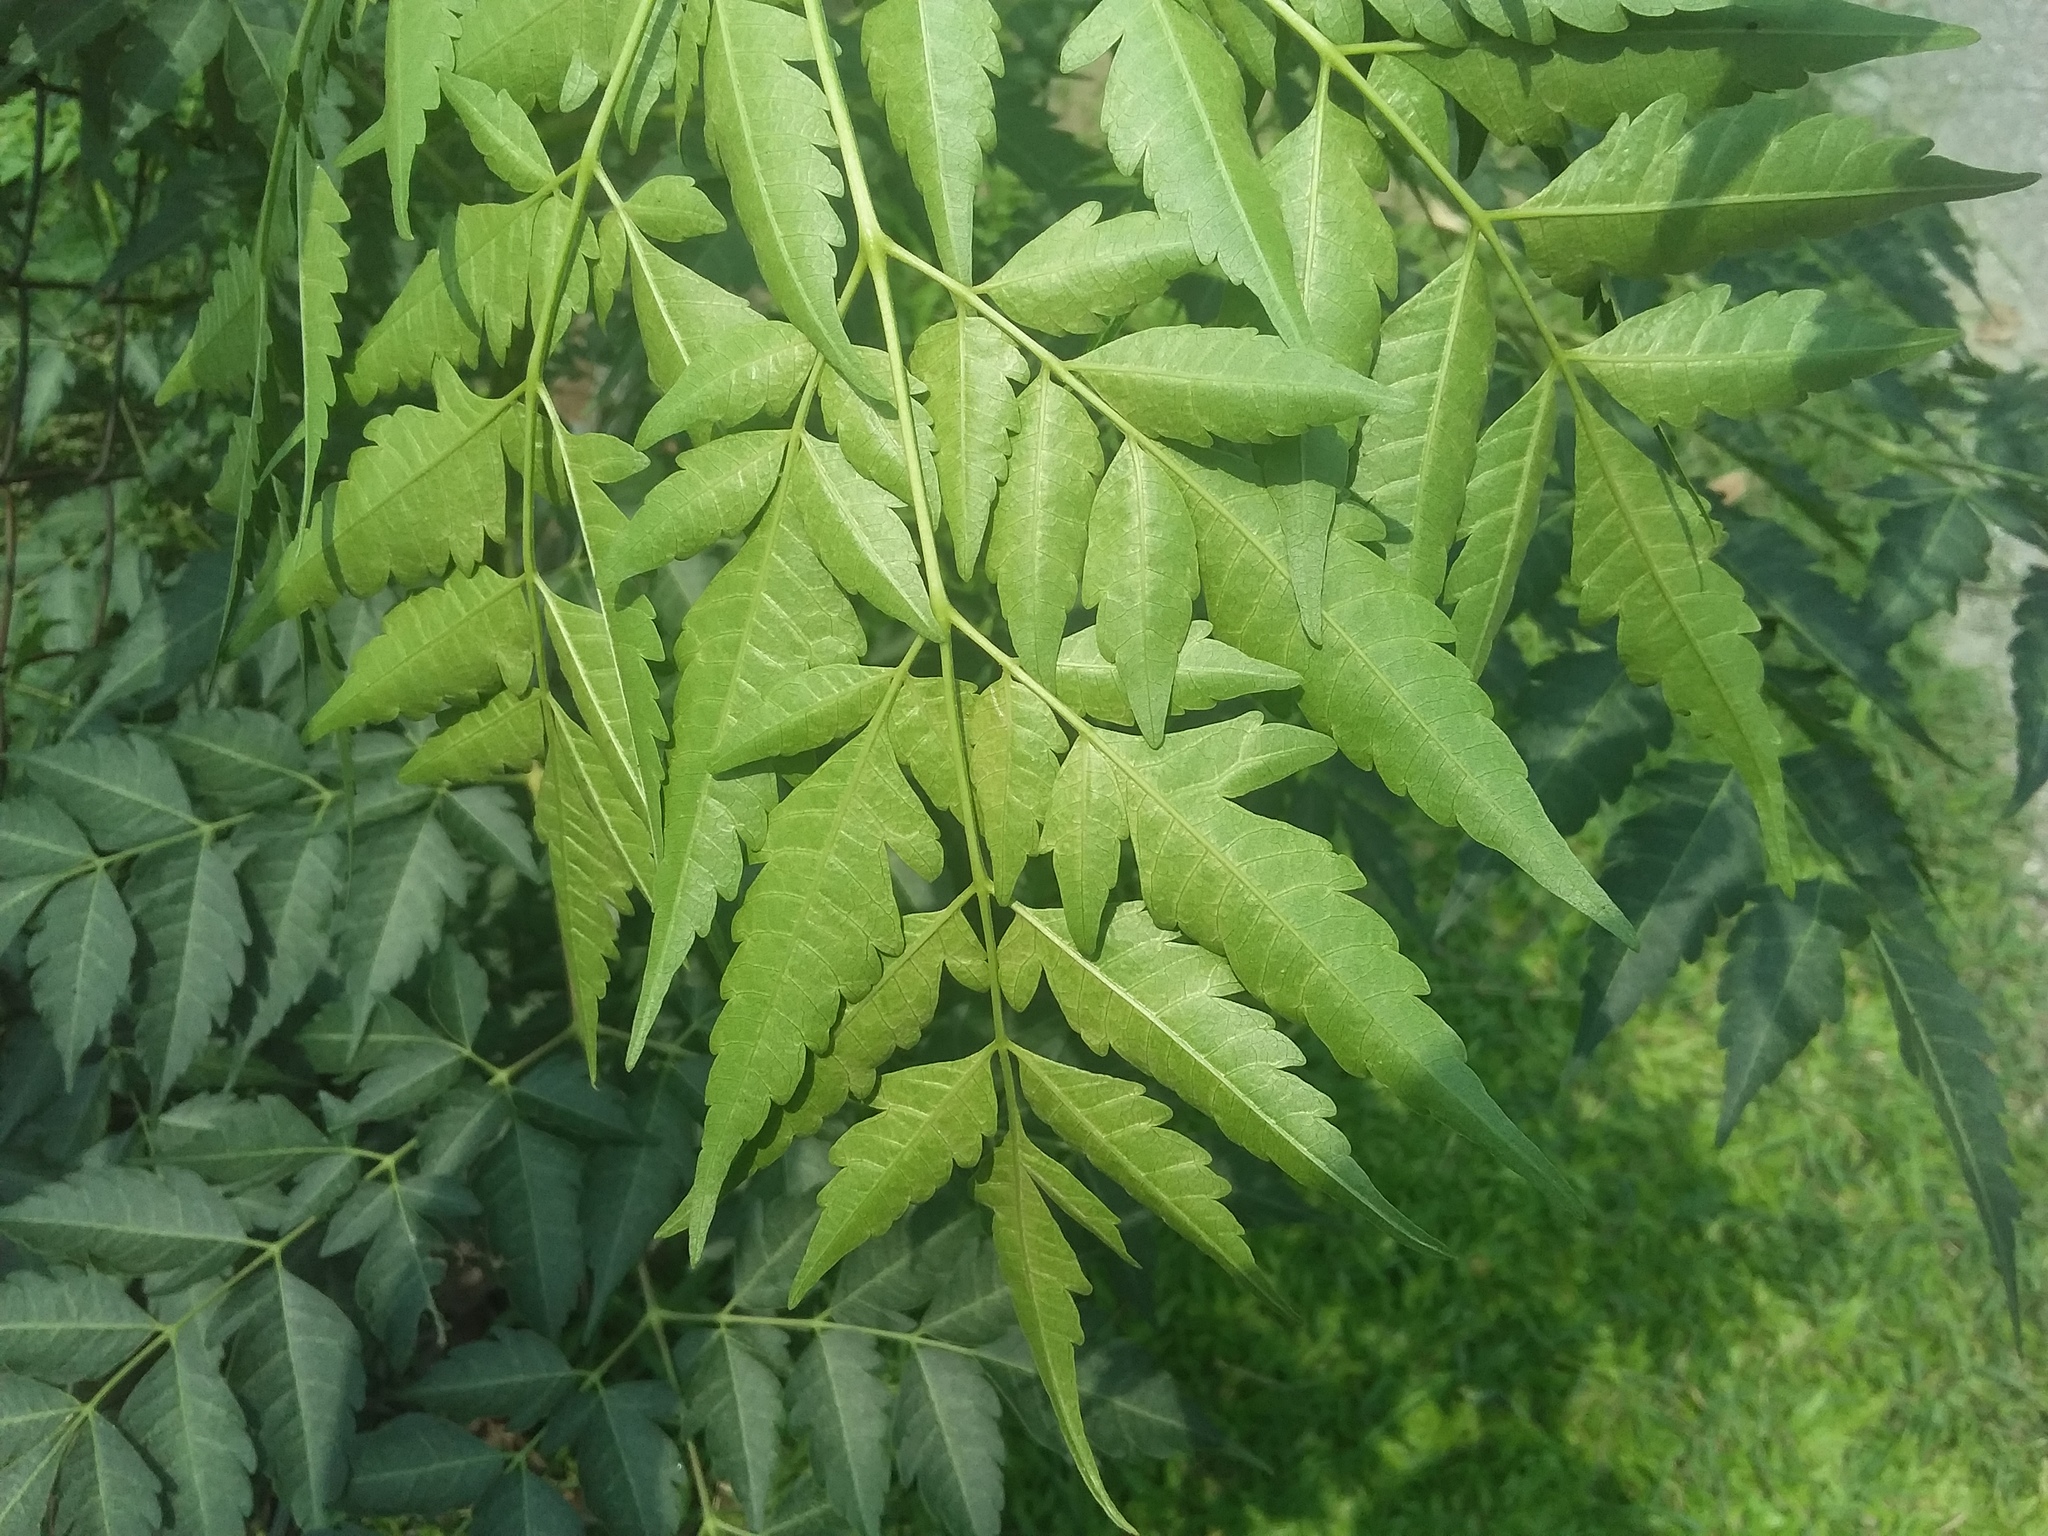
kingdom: Plantae
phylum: Tracheophyta
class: Magnoliopsida
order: Sapindales
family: Meliaceae
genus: Melia
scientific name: Melia azedarach
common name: Chinaberrytree
